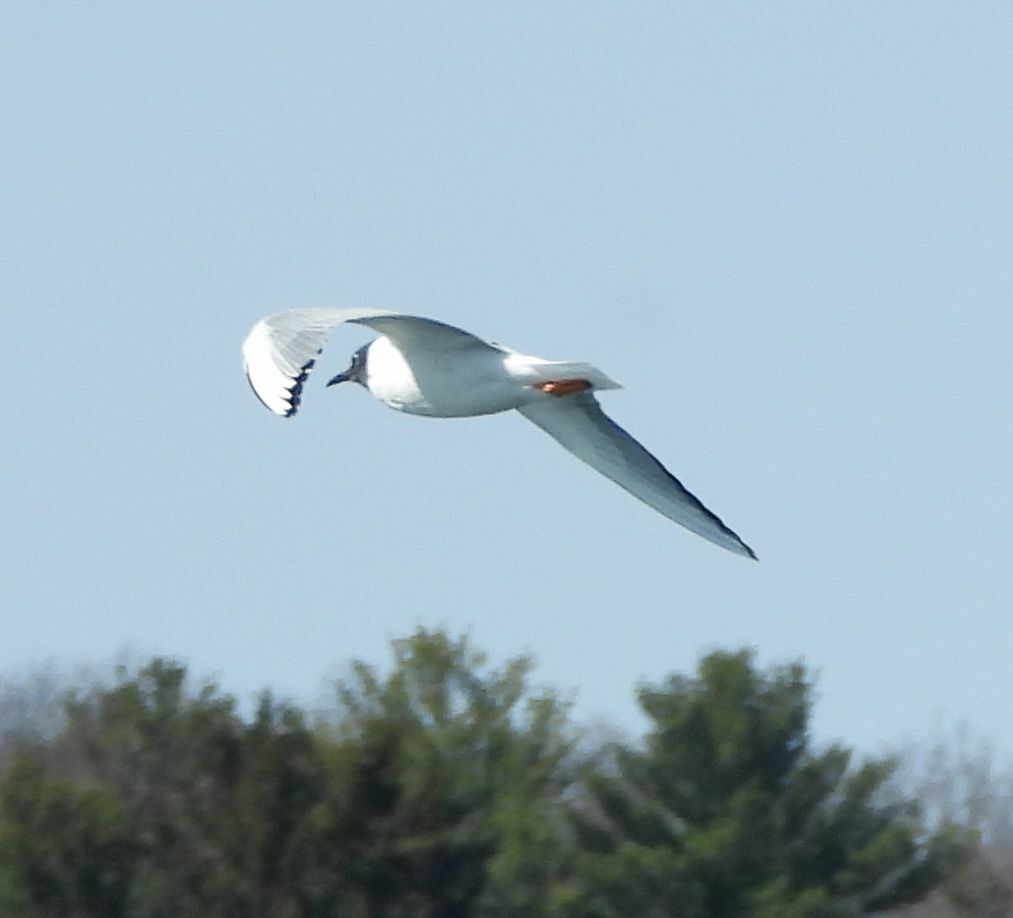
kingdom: Animalia
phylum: Chordata
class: Aves
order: Charadriiformes
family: Laridae
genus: Chroicocephalus
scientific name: Chroicocephalus philadelphia
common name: Bonaparte's gull
